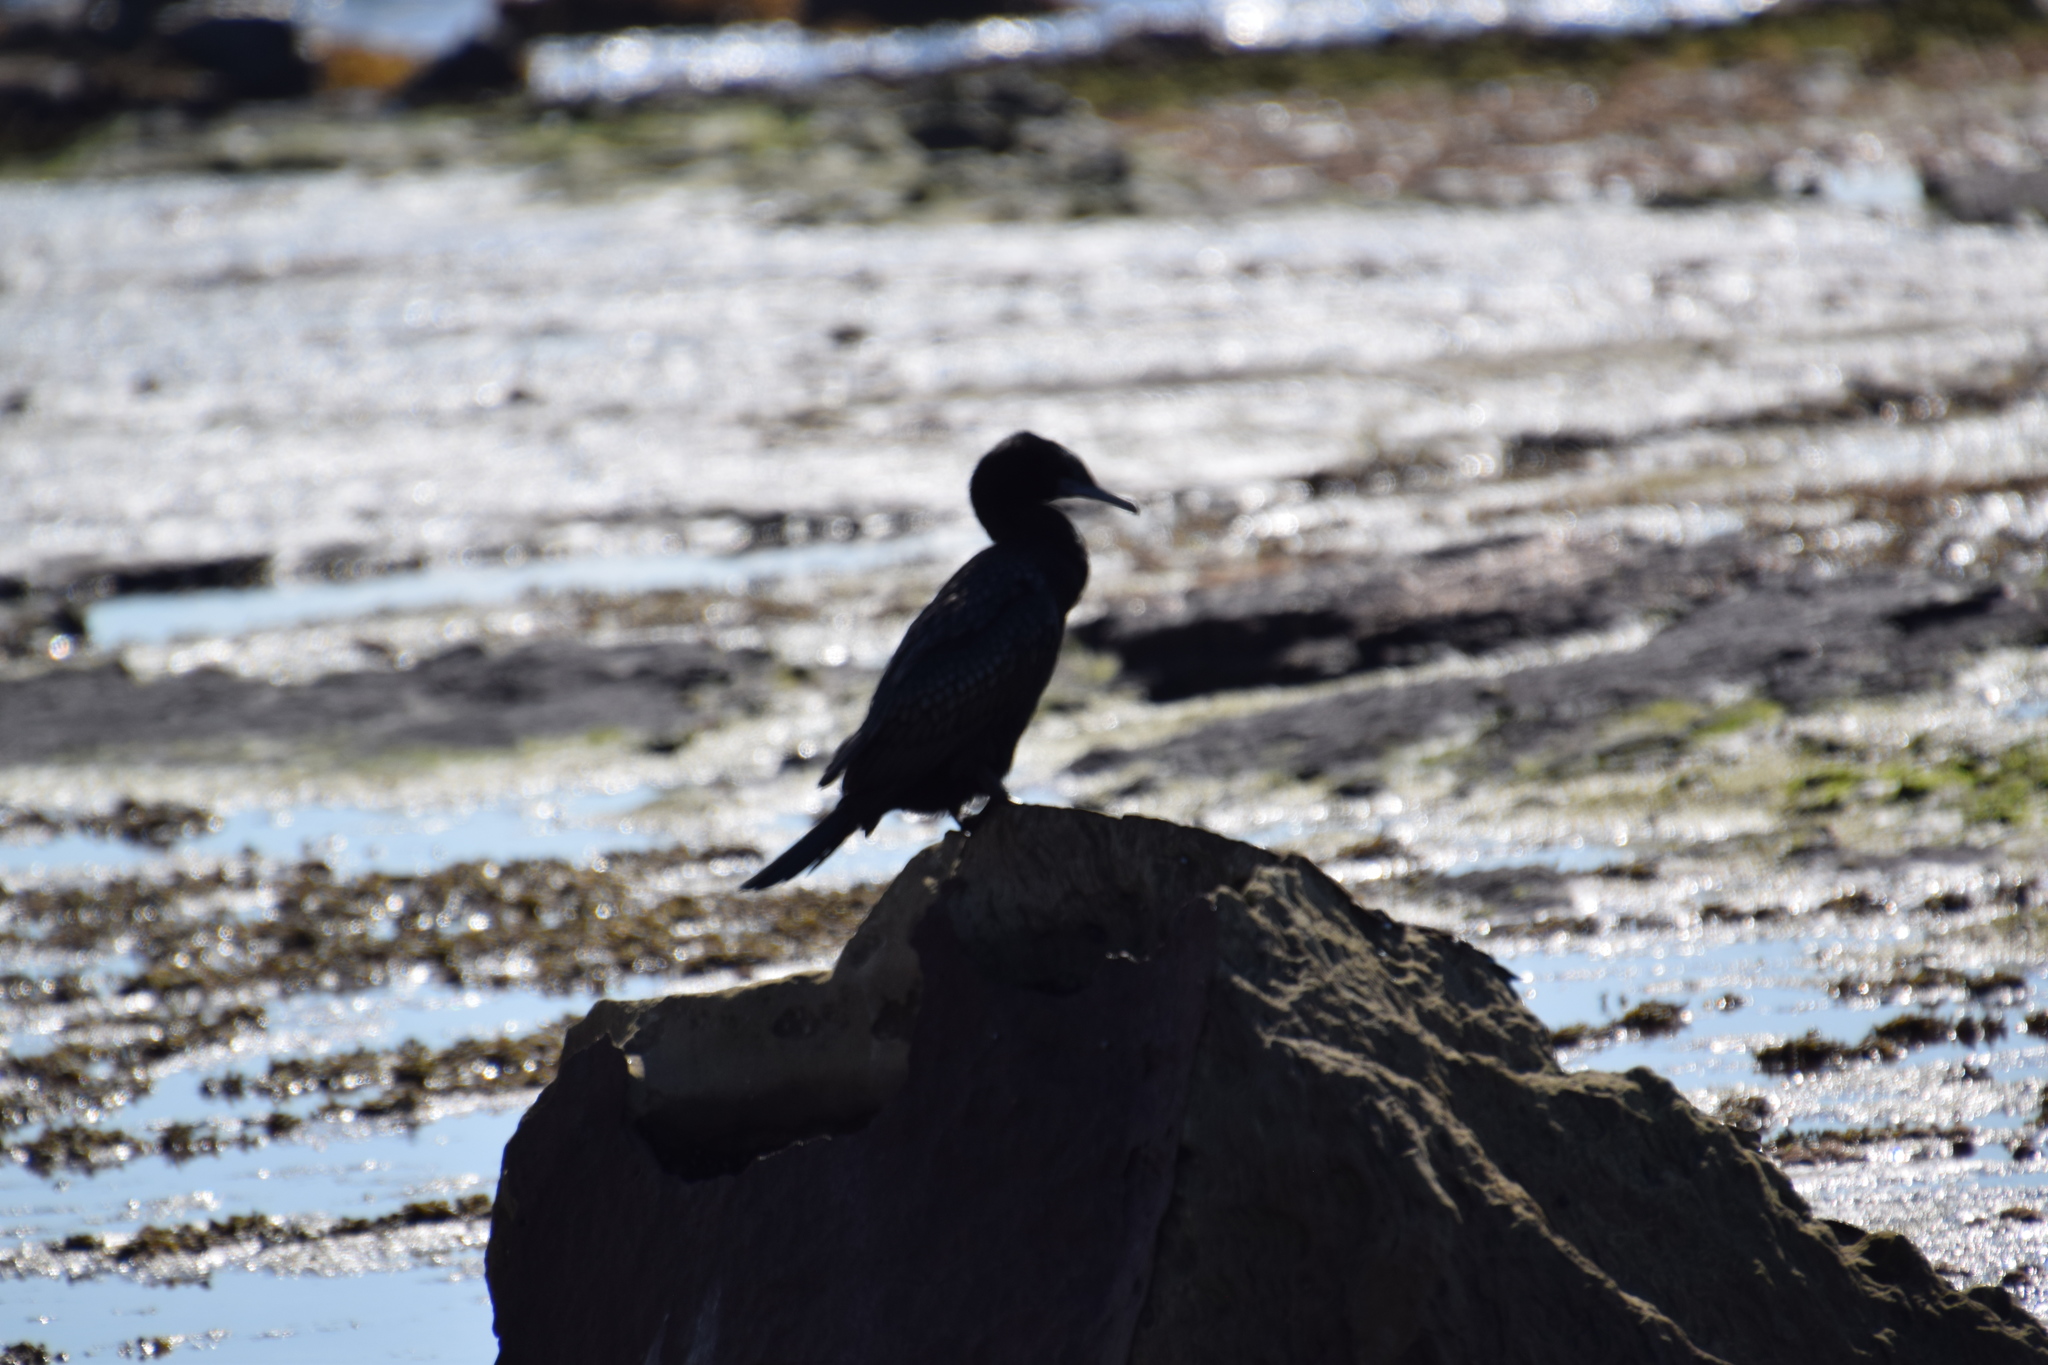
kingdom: Animalia
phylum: Chordata
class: Aves
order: Suliformes
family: Phalacrocoracidae
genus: Phalacrocorax
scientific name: Phalacrocorax sulcirostris
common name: Little black cormorant
